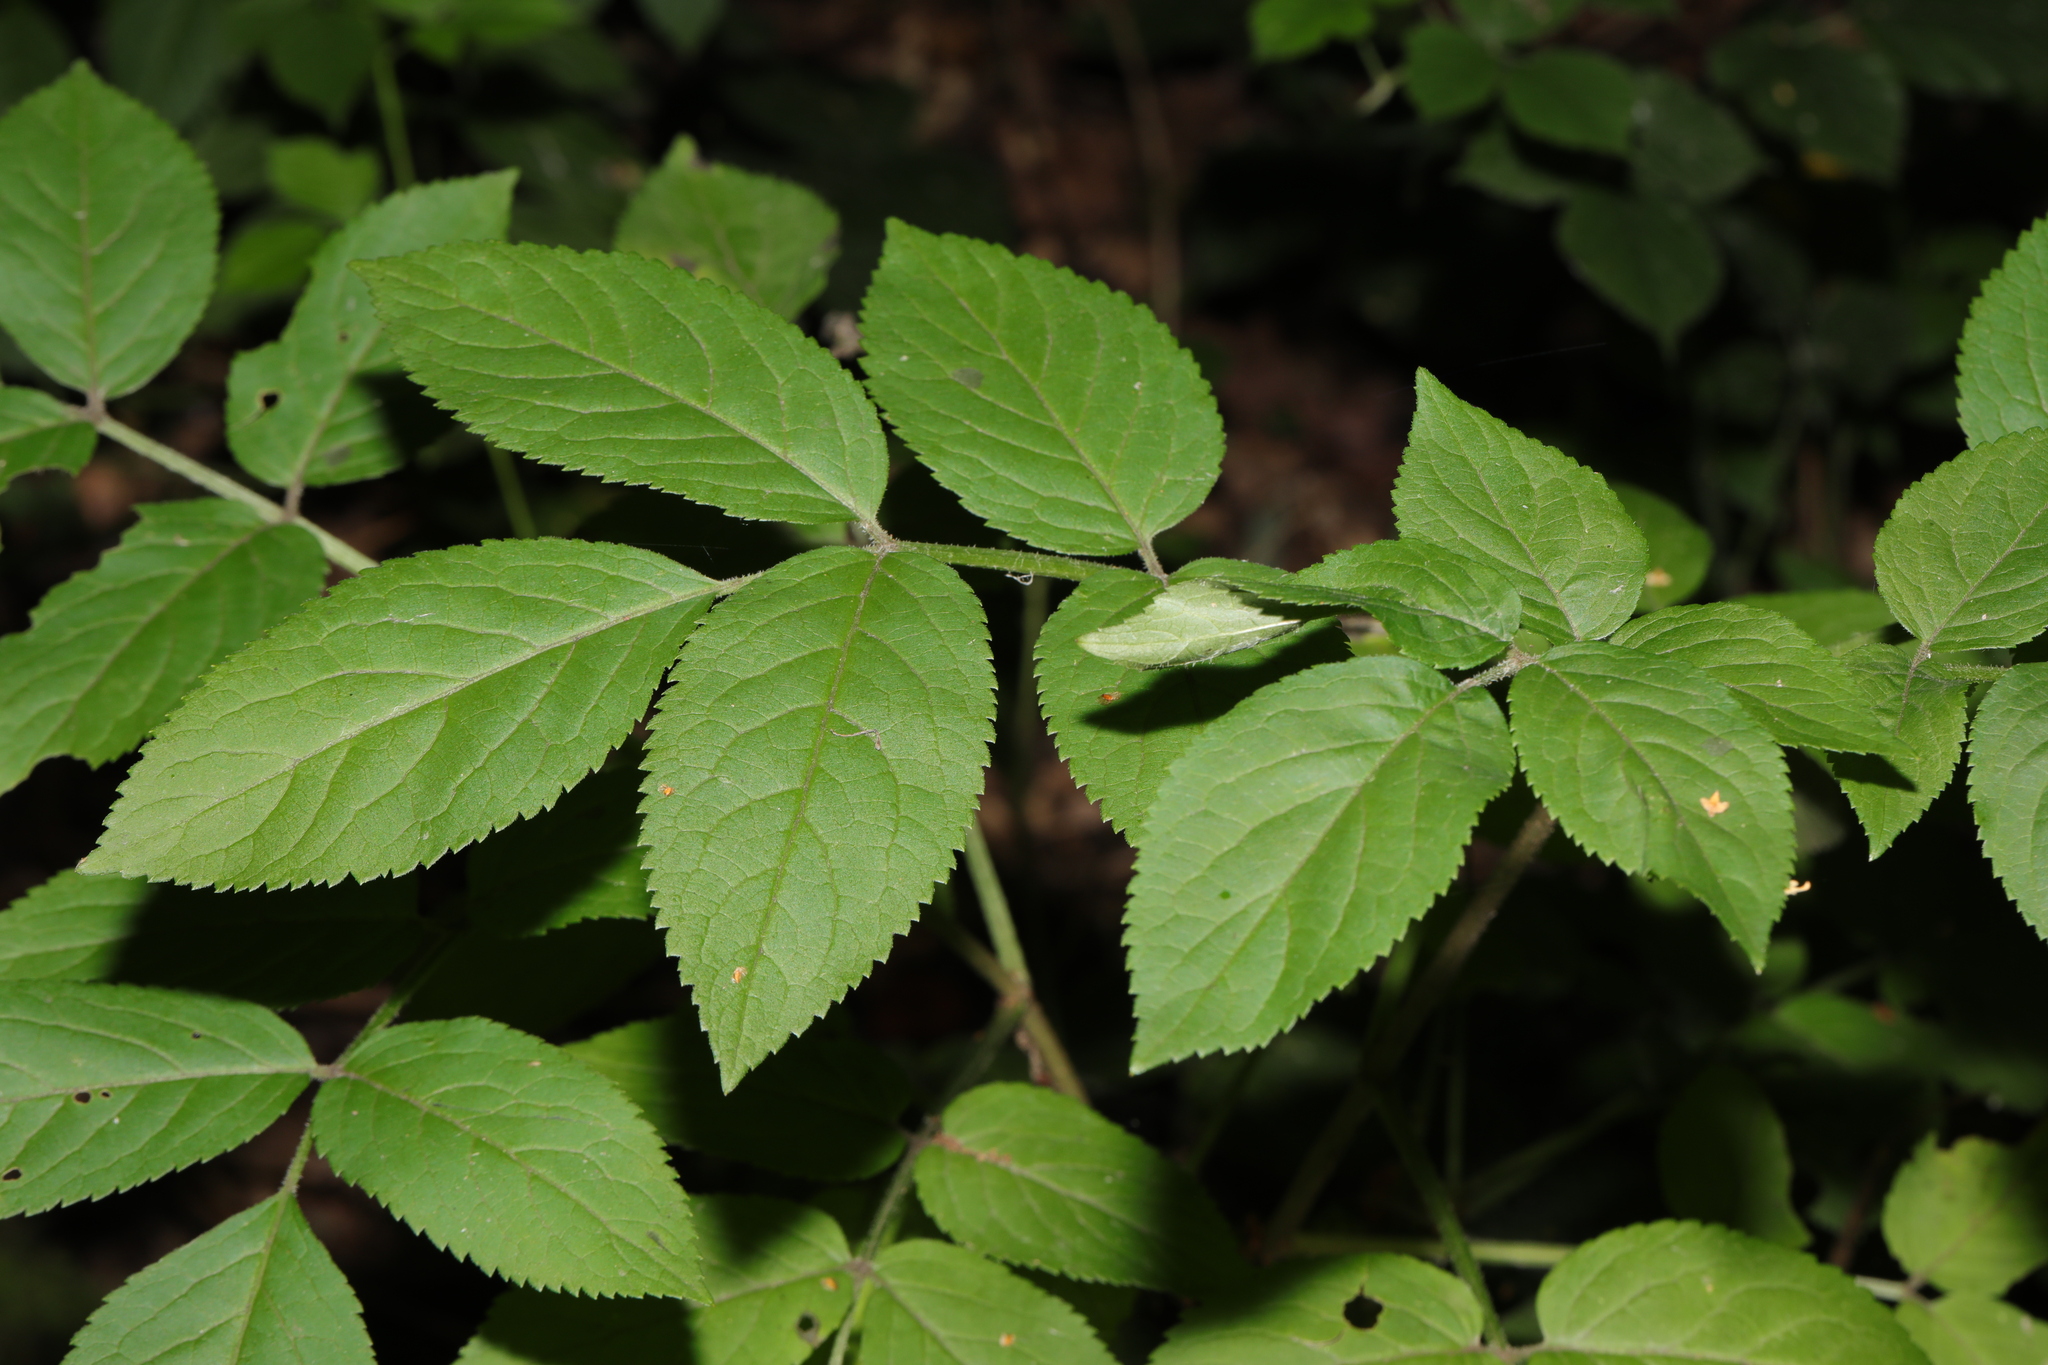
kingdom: Plantae
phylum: Tracheophyta
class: Magnoliopsida
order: Dipsacales
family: Viburnaceae
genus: Sambucus
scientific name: Sambucus nigra
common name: Elder
